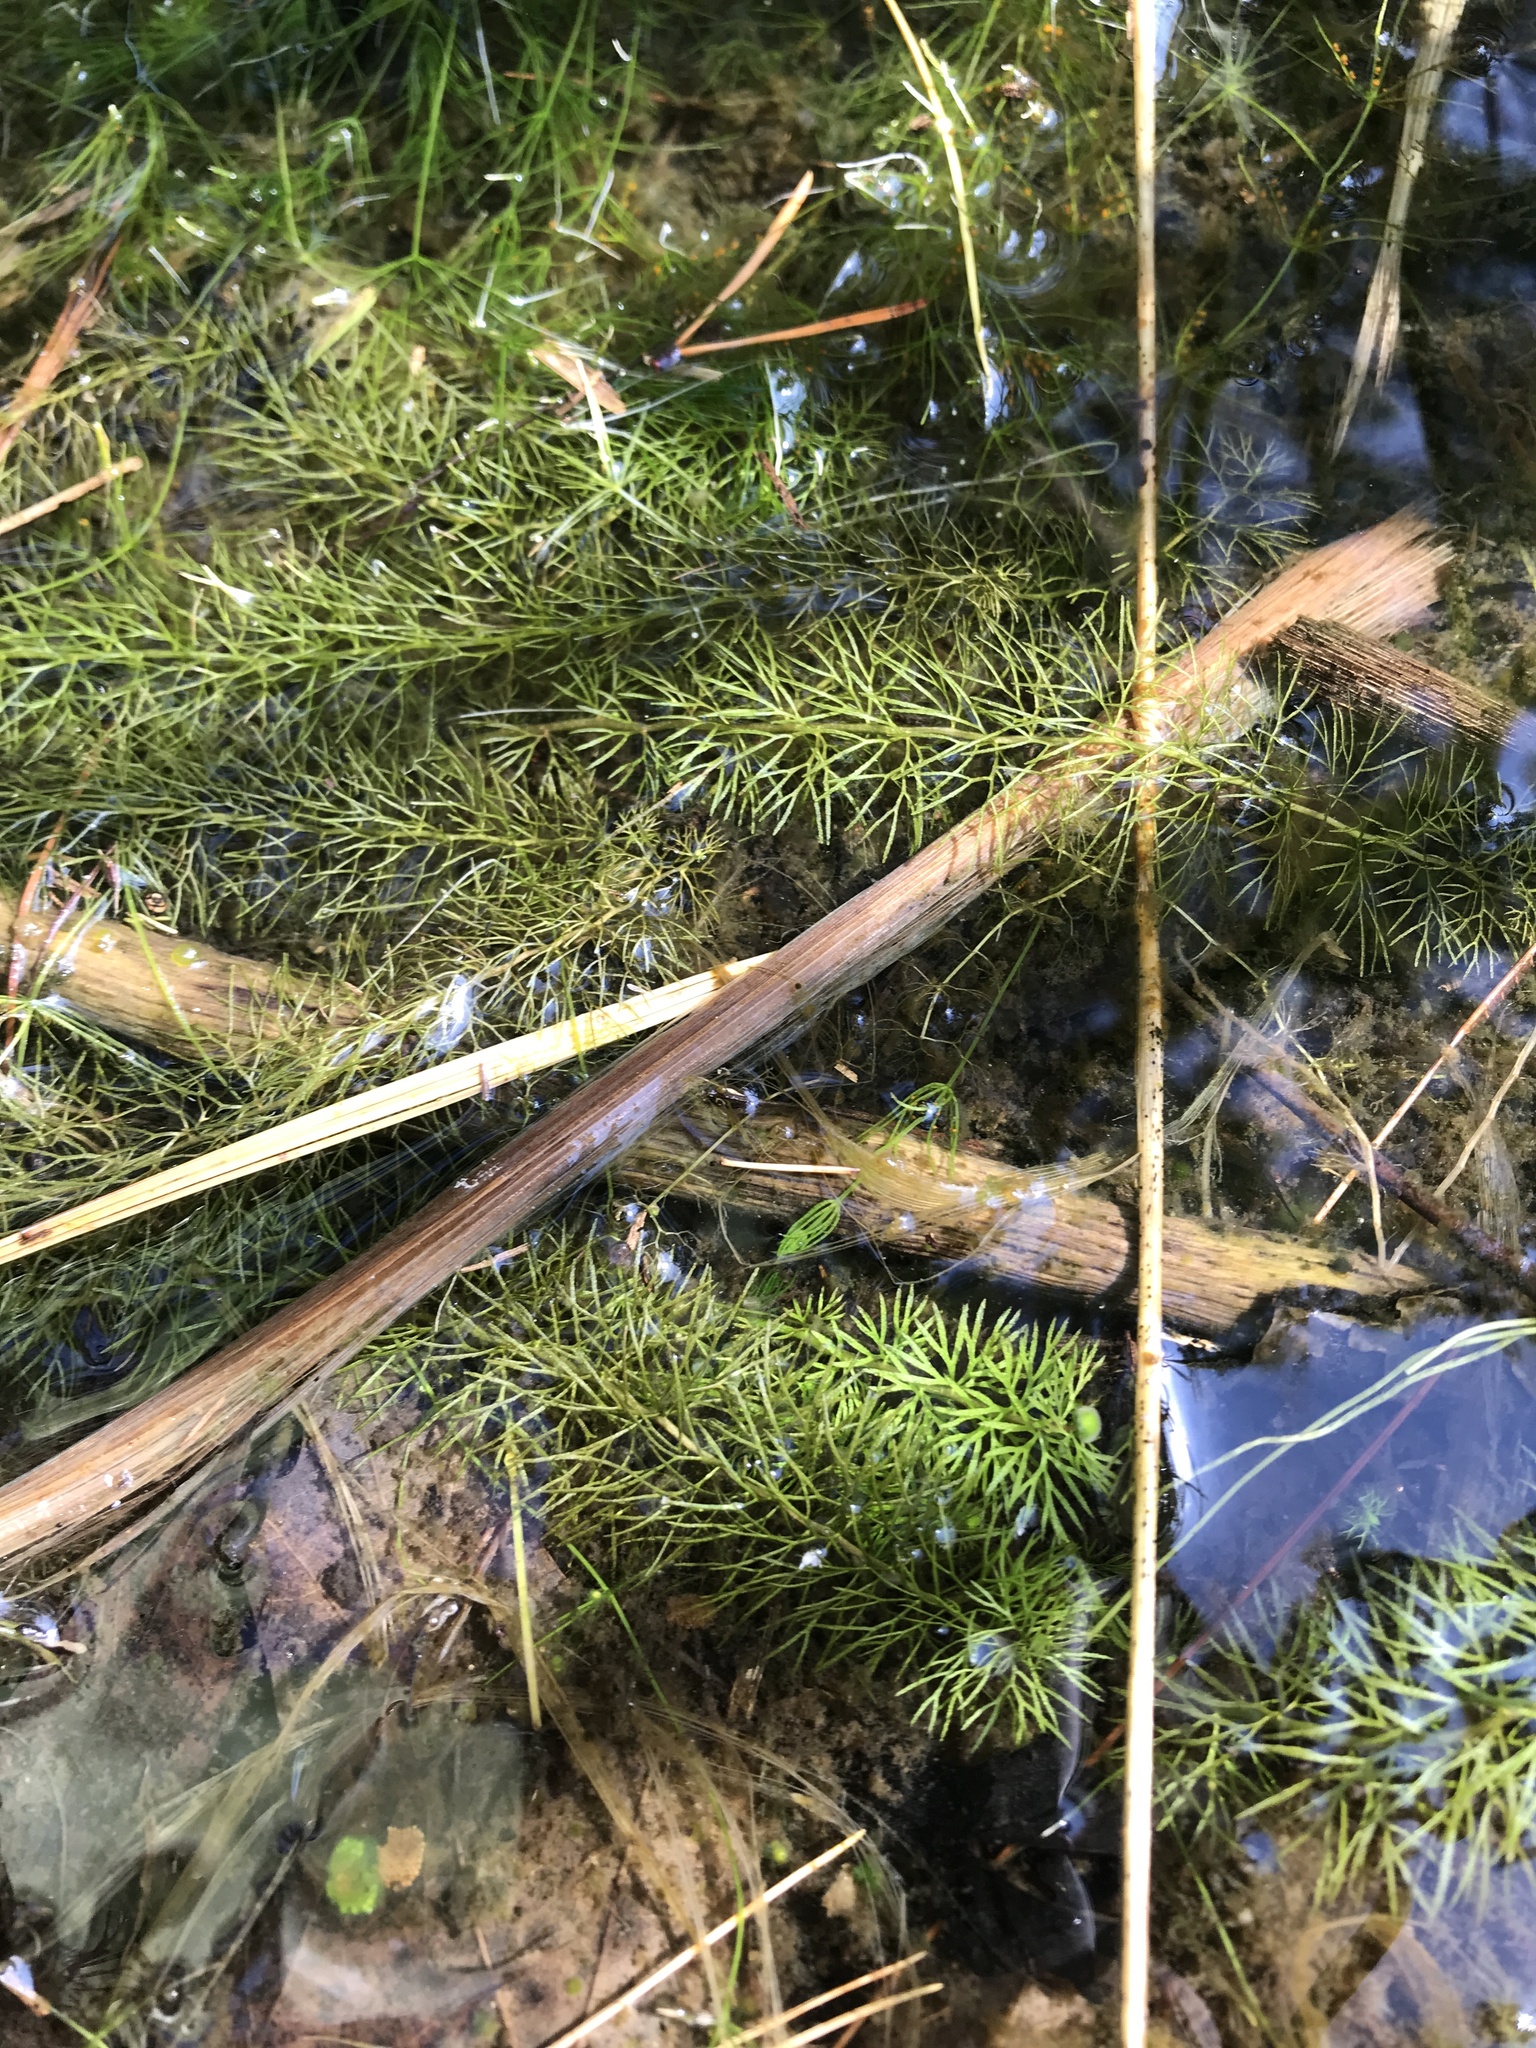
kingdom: Plantae
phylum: Tracheophyta
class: Magnoliopsida
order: Lamiales
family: Lentibulariaceae
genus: Utricularia
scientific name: Utricularia intermedia
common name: Intermediate bladderwort
